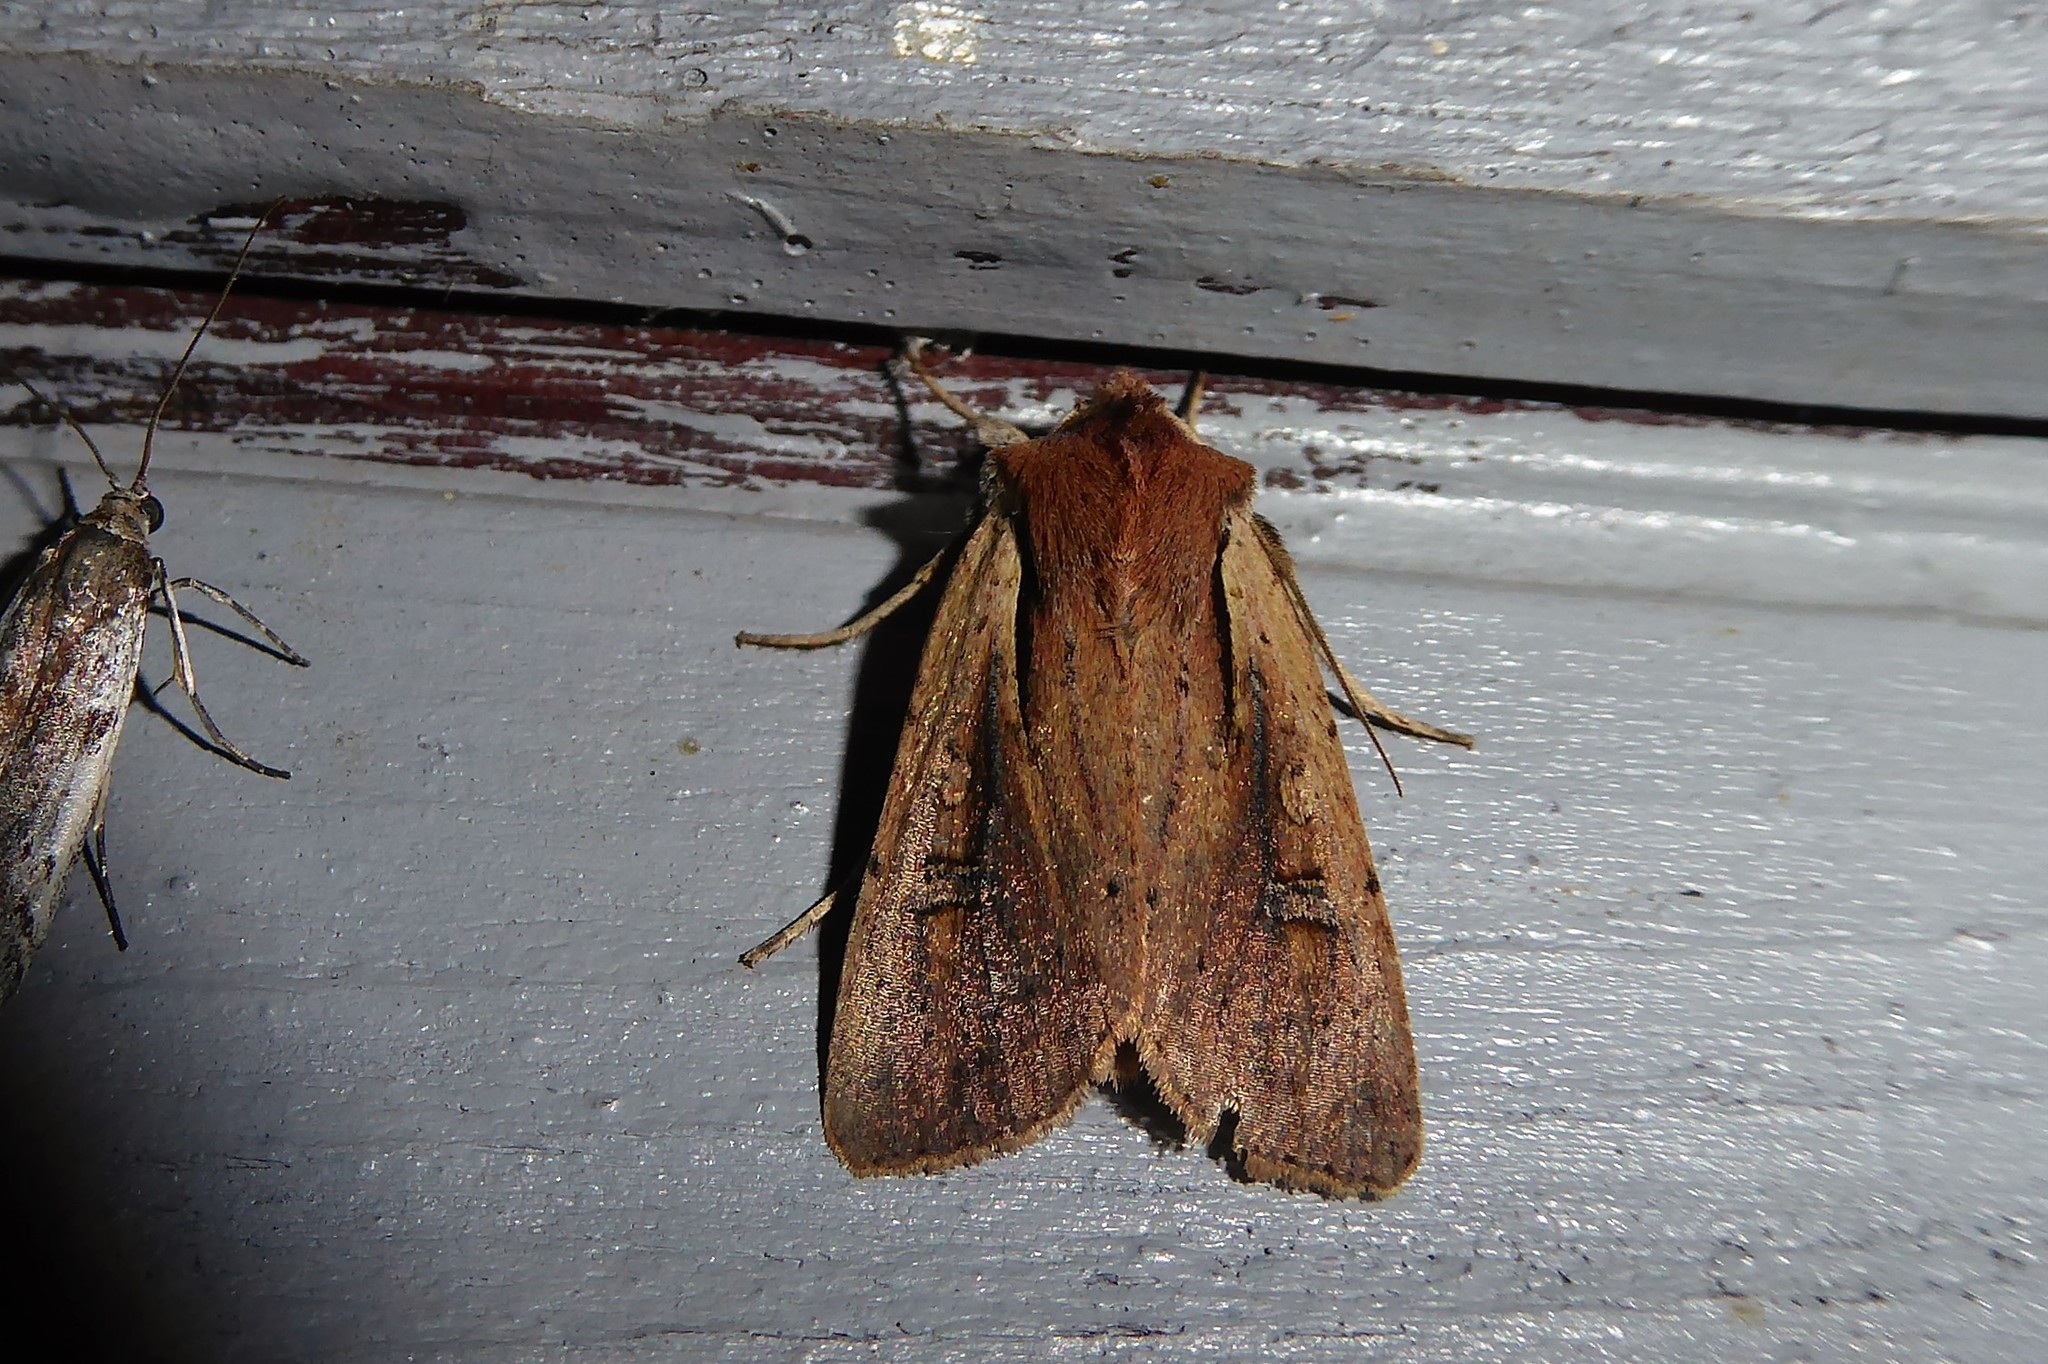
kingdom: Animalia
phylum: Arthropoda
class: Insecta
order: Lepidoptera
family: Noctuidae
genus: Ichneutica
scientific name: Ichneutica atristriga
